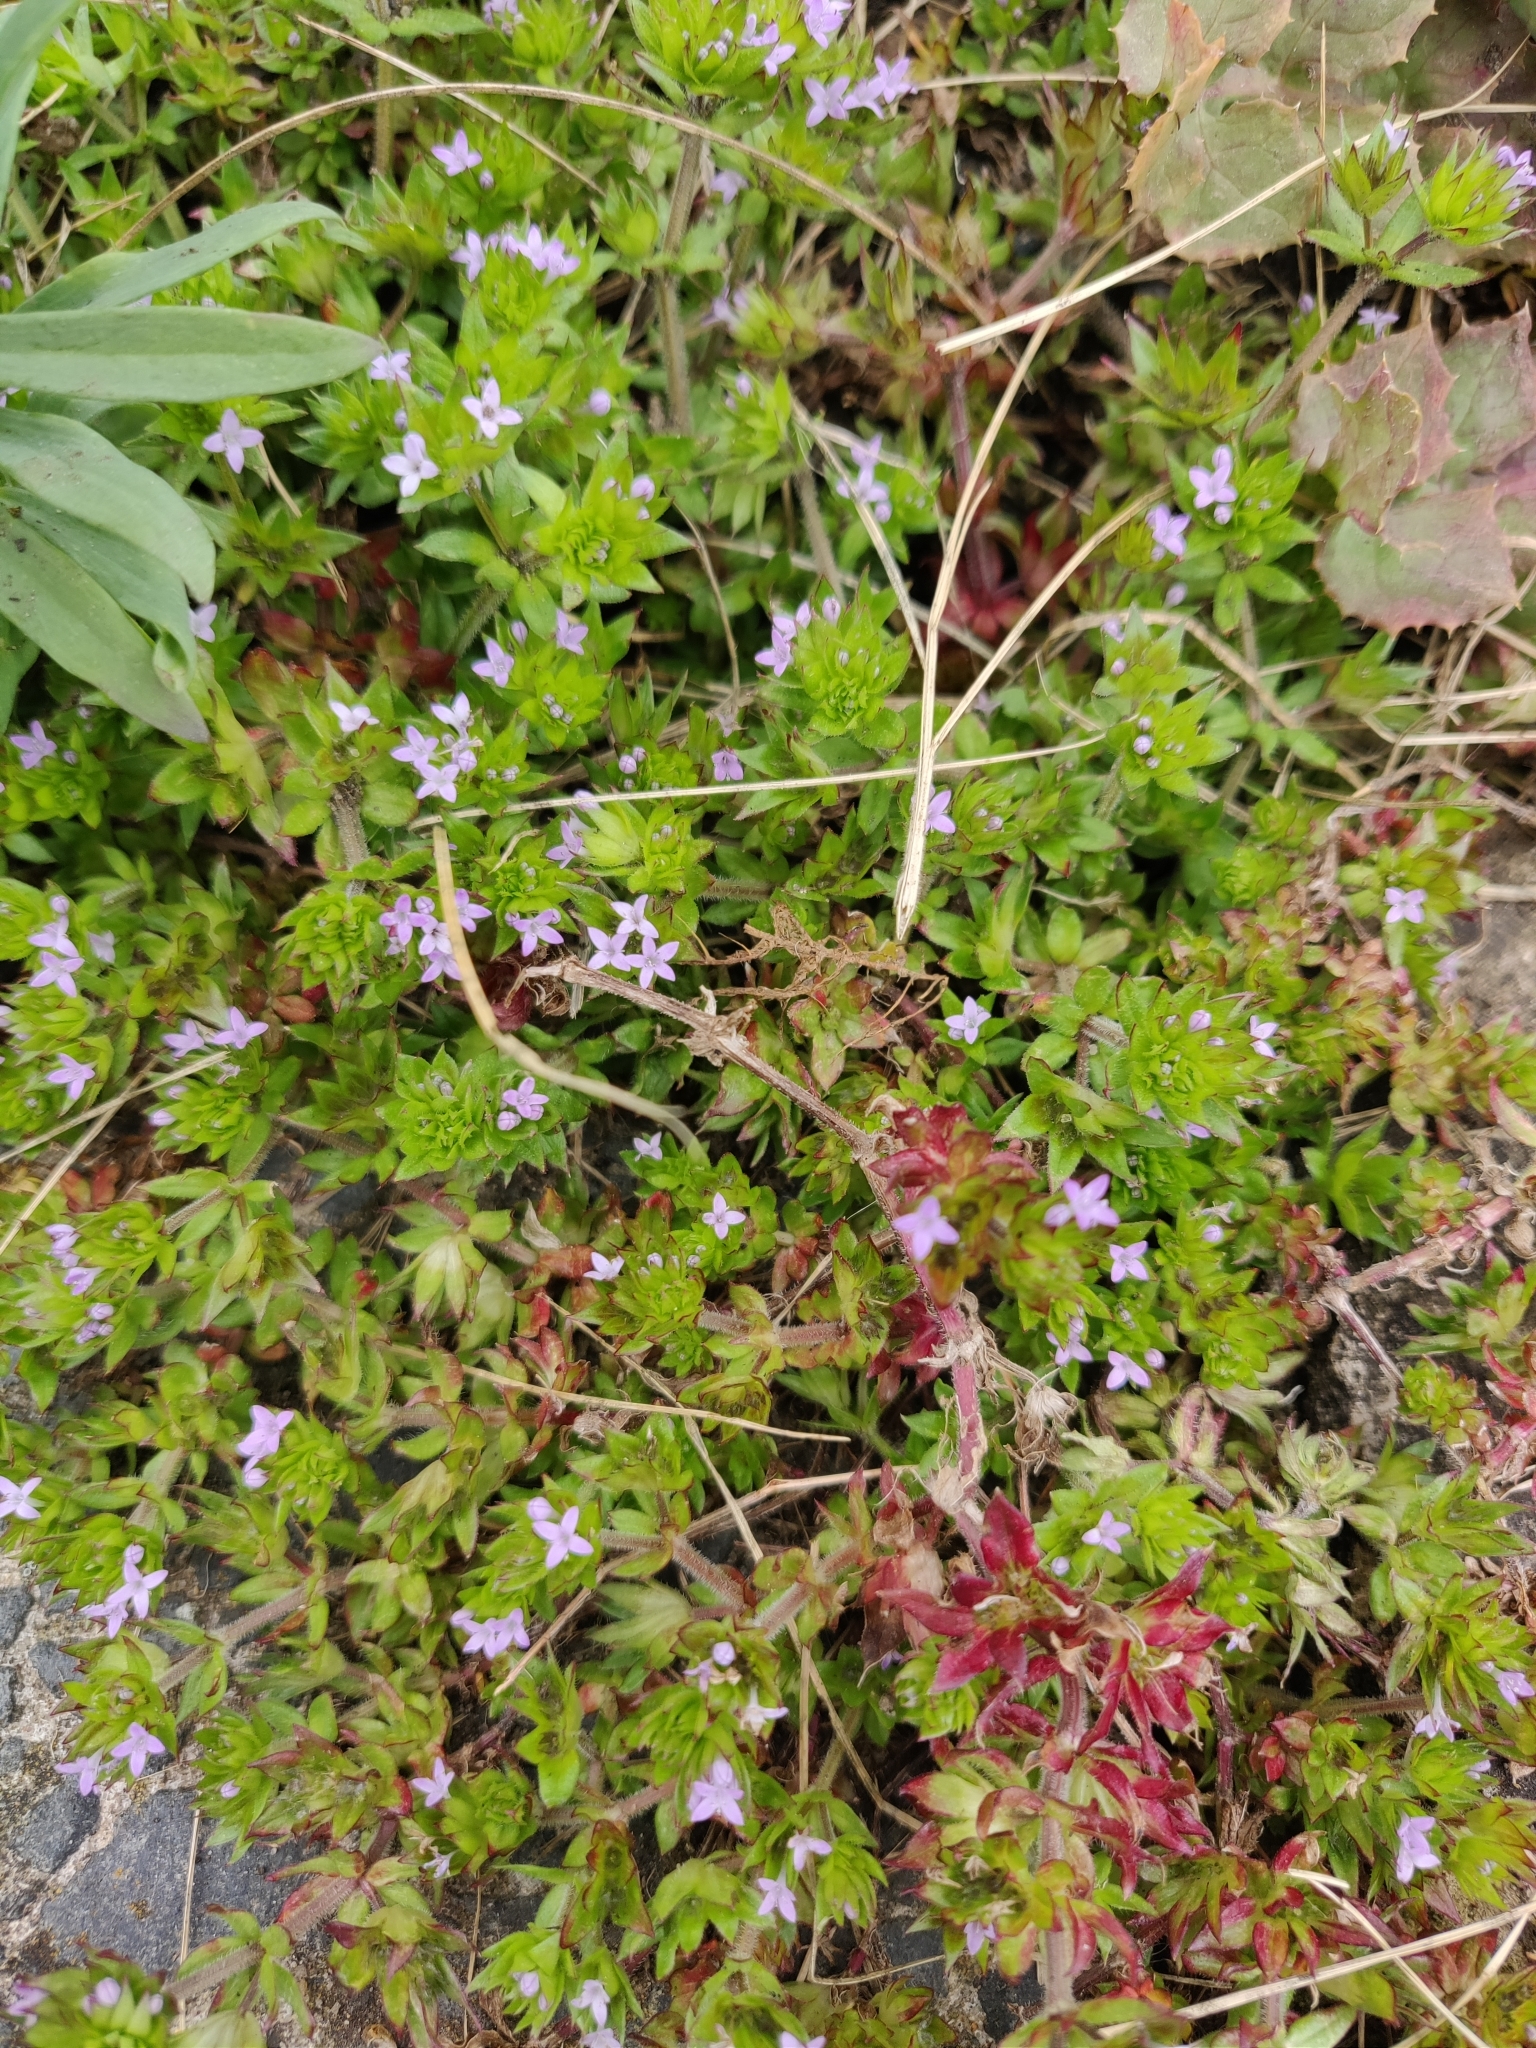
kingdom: Plantae
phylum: Tracheophyta
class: Magnoliopsida
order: Gentianales
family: Rubiaceae
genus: Sherardia
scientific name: Sherardia arvensis
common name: Field madder
